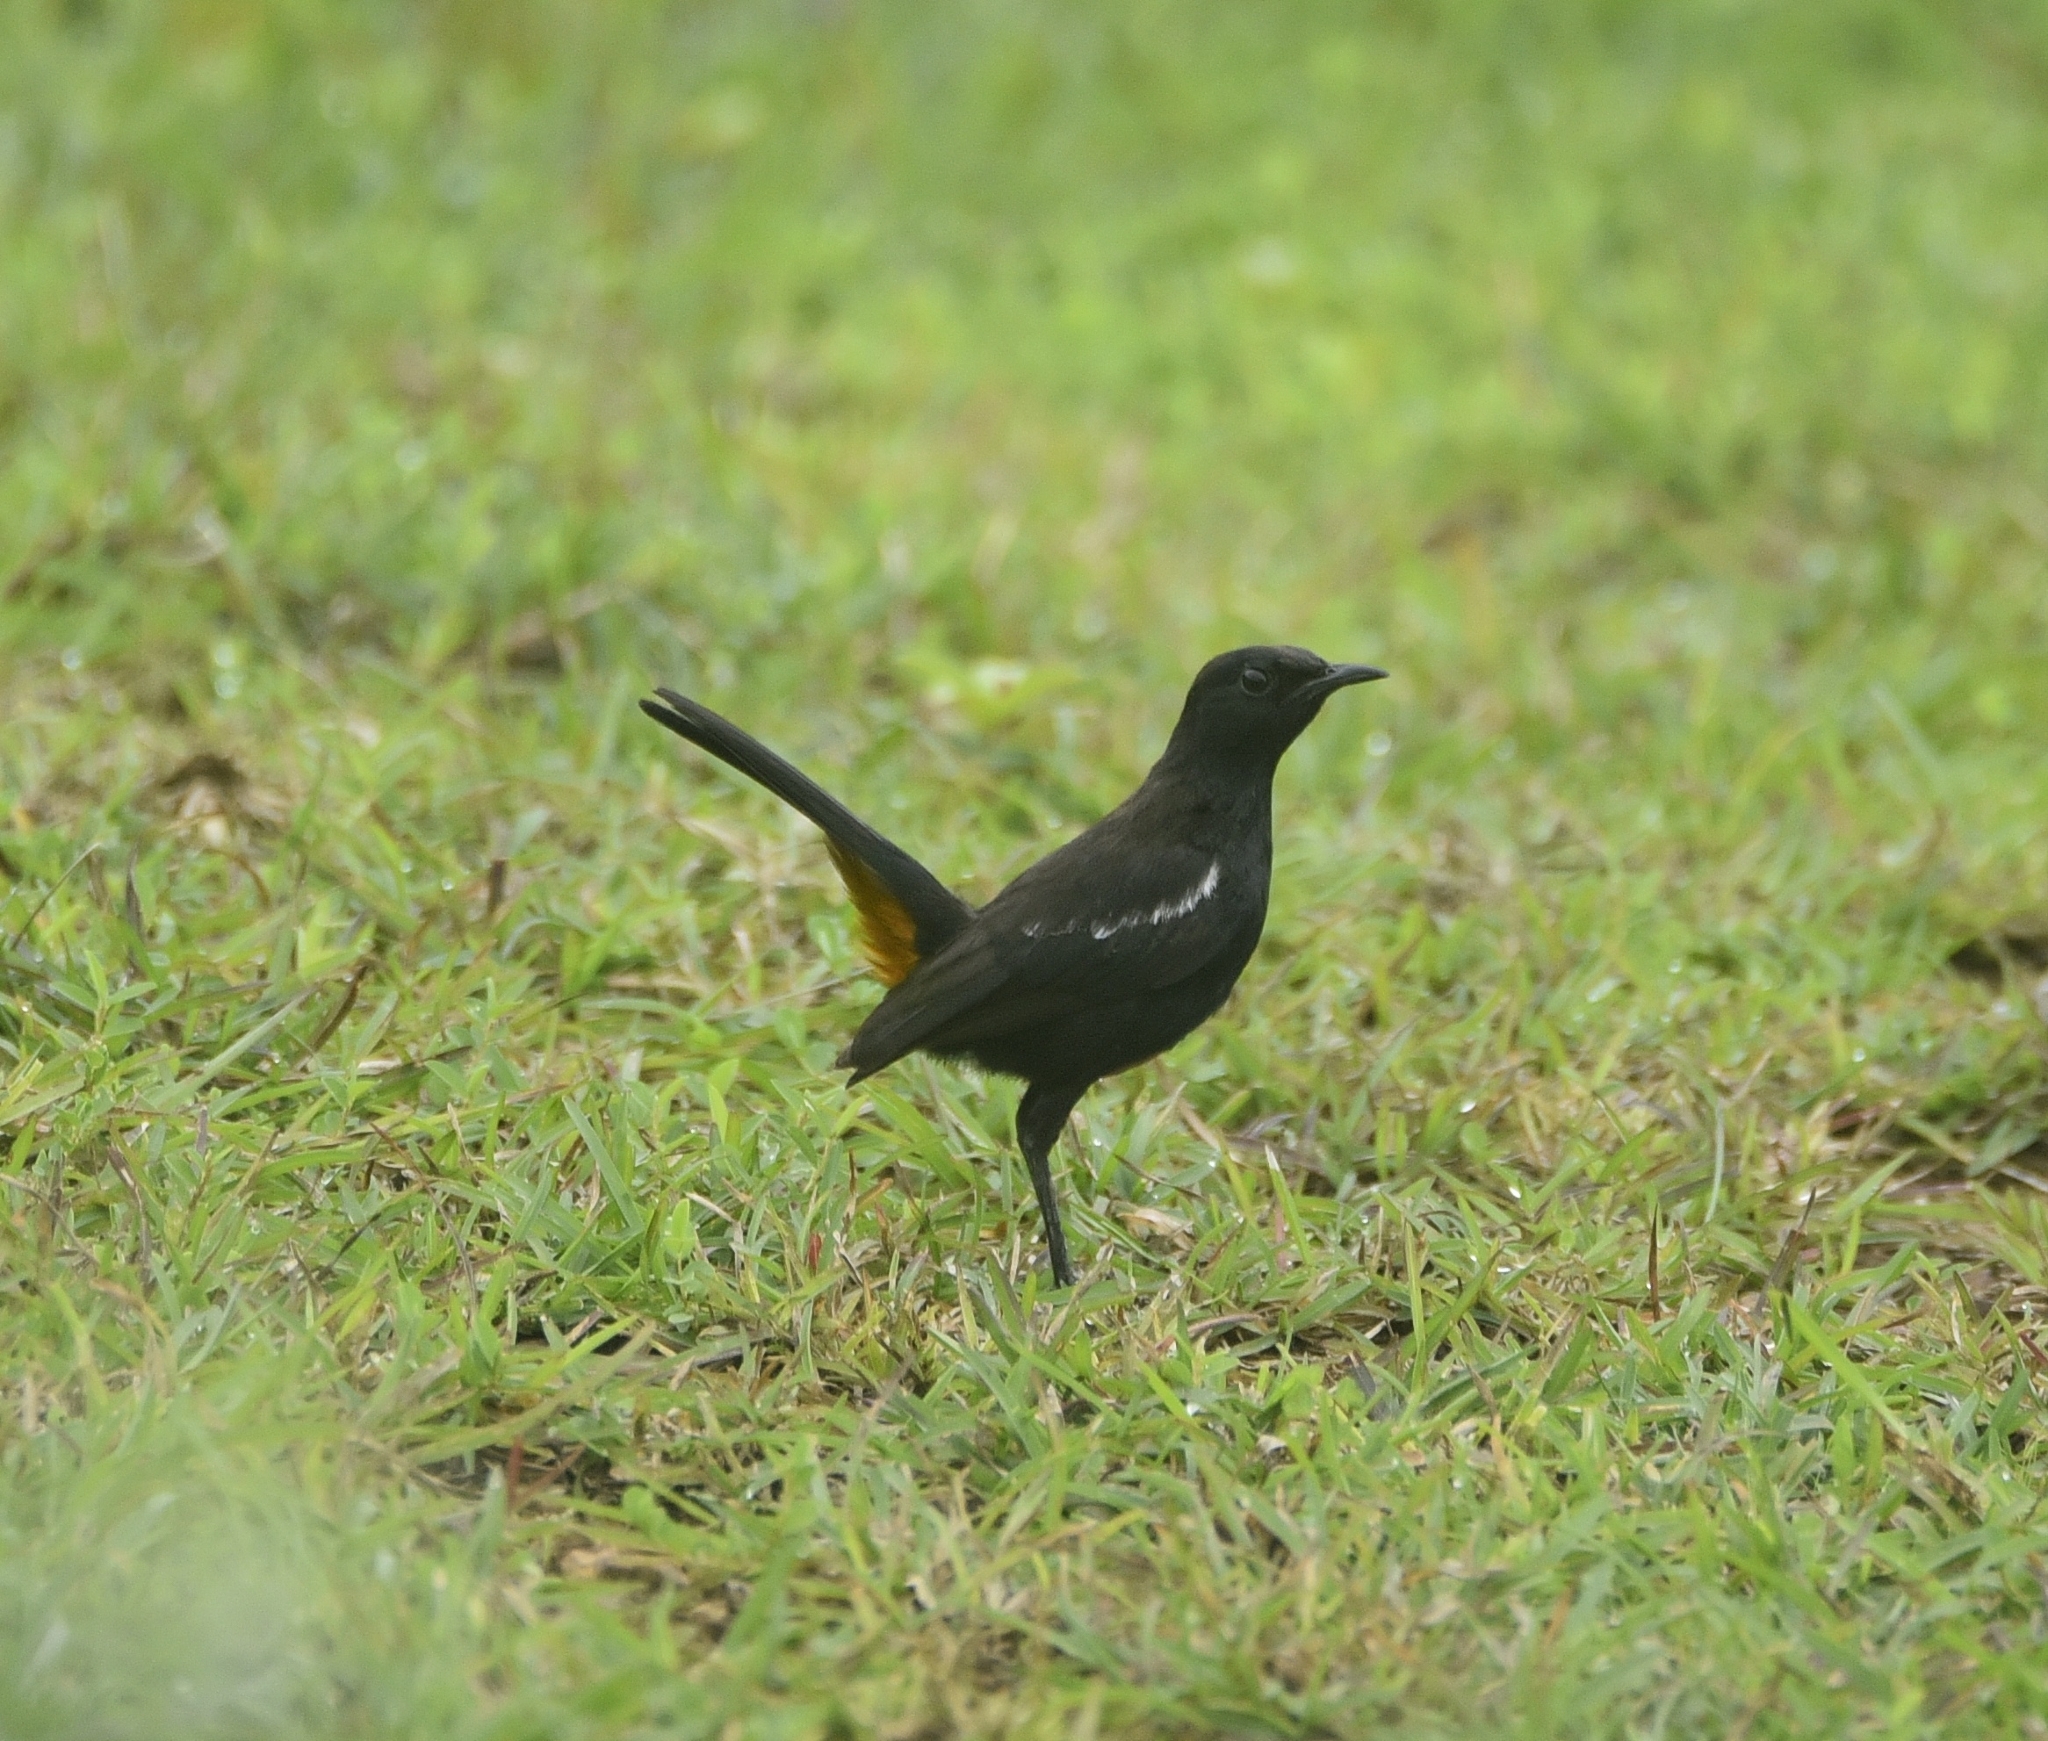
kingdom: Animalia
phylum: Chordata
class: Aves
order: Passeriformes
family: Muscicapidae
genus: Saxicoloides
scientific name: Saxicoloides fulicatus
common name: Indian robin
